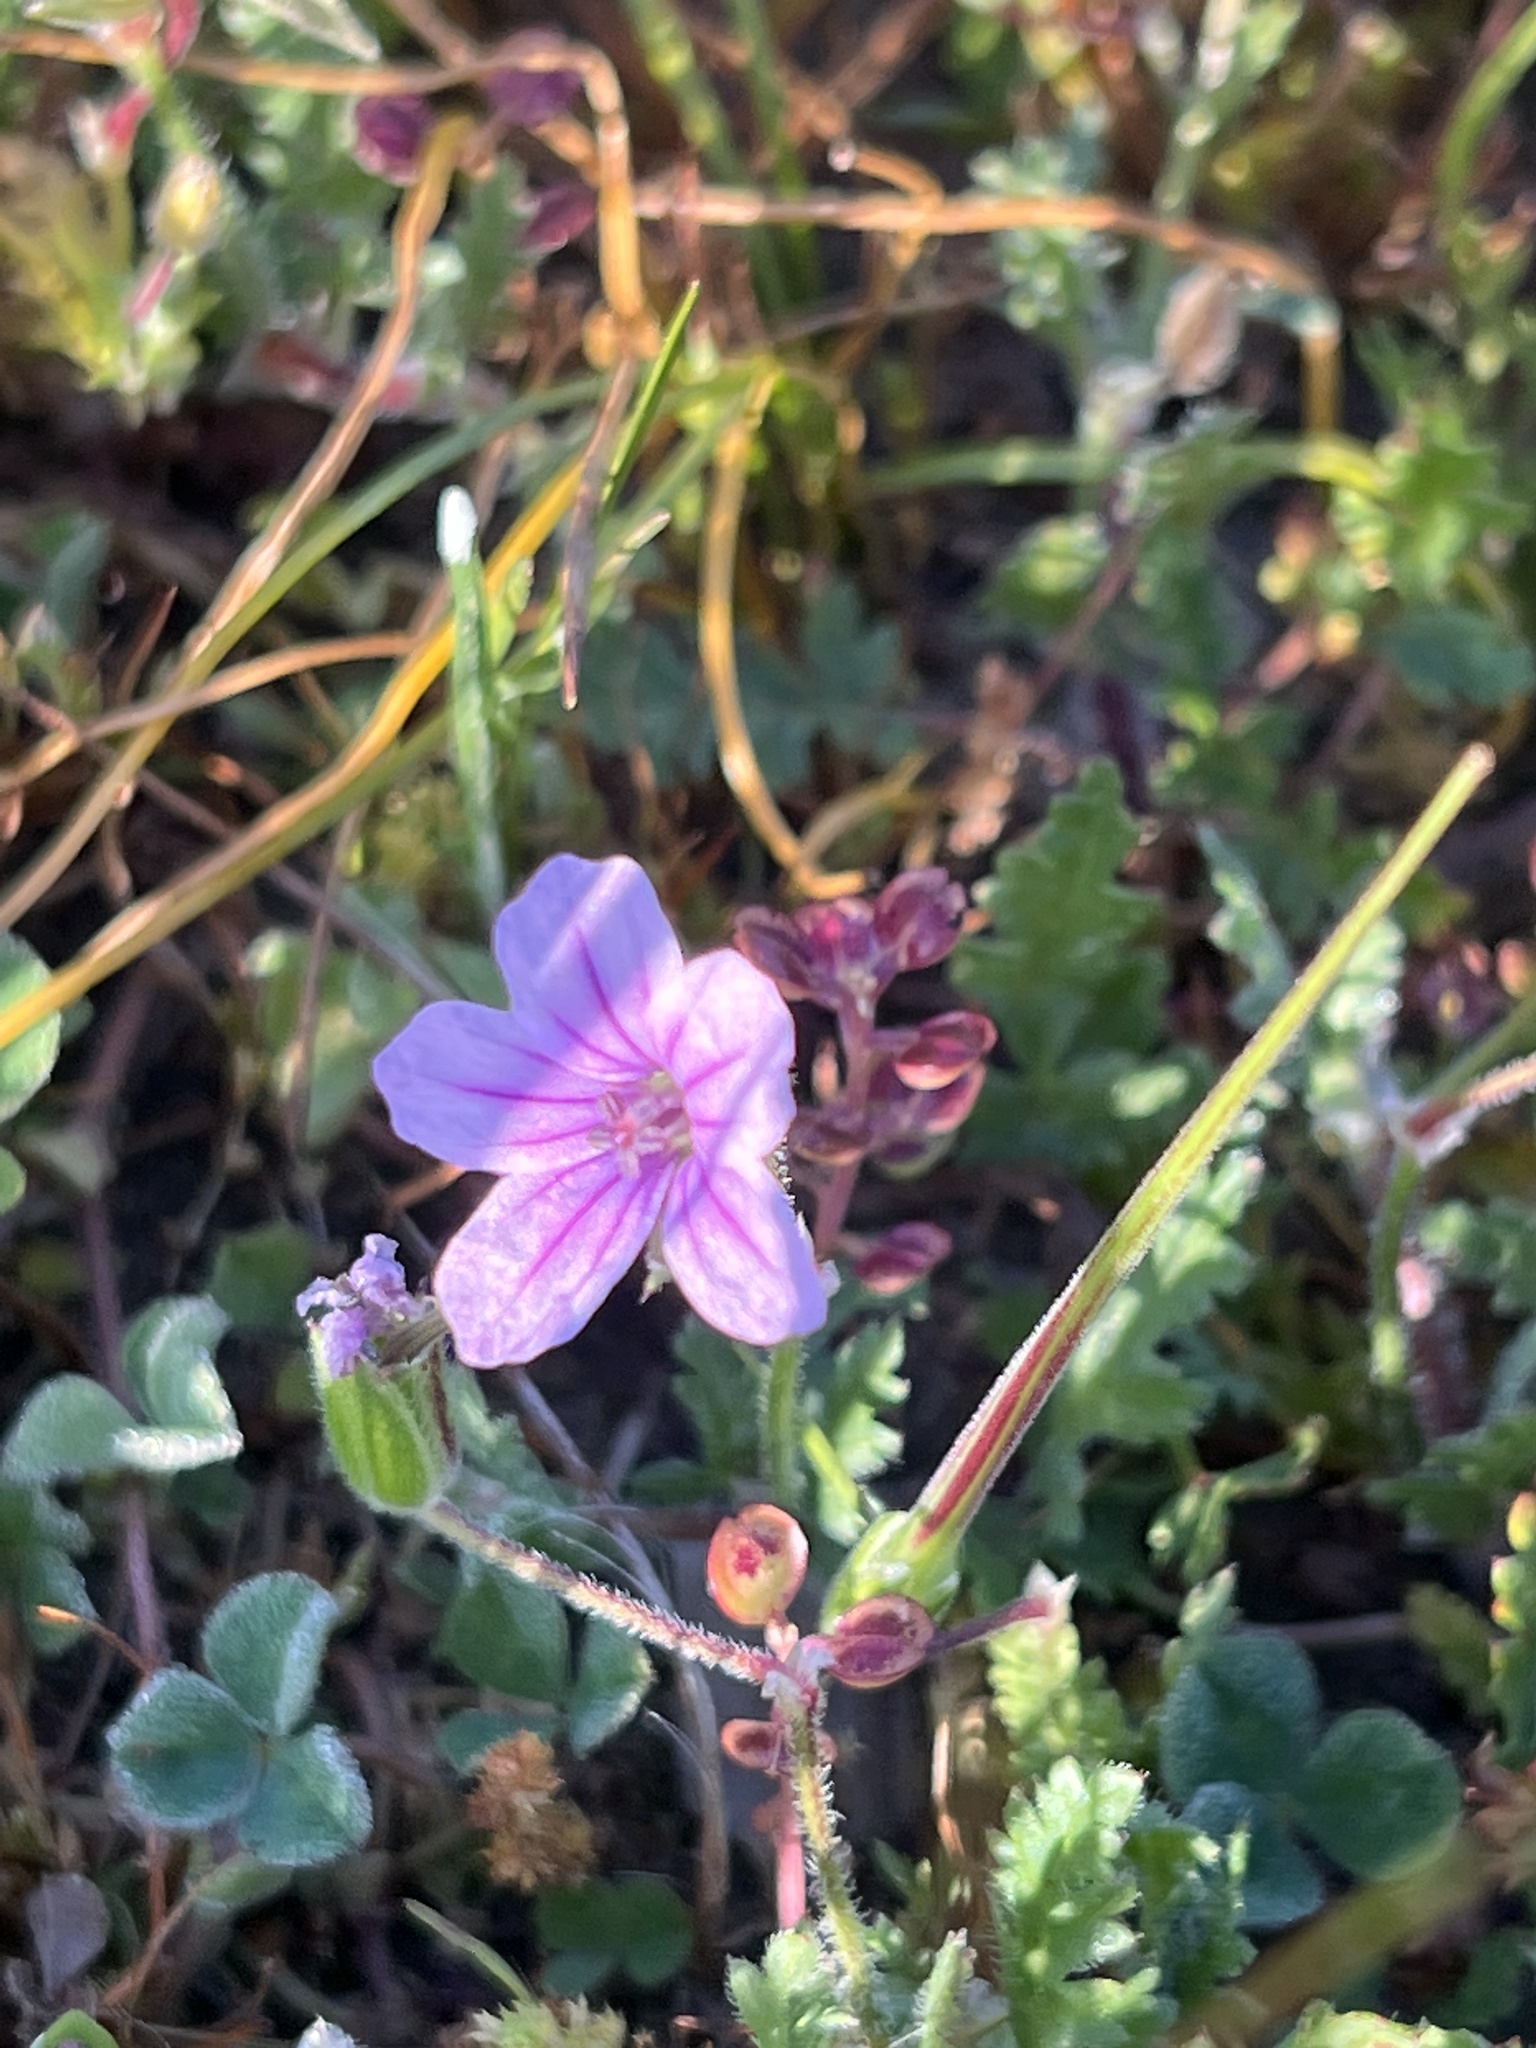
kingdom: Plantae
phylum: Tracheophyta
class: Magnoliopsida
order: Geraniales
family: Geraniaceae
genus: Erodium
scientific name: Erodium botrys
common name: Mediterranean stork's-bill
